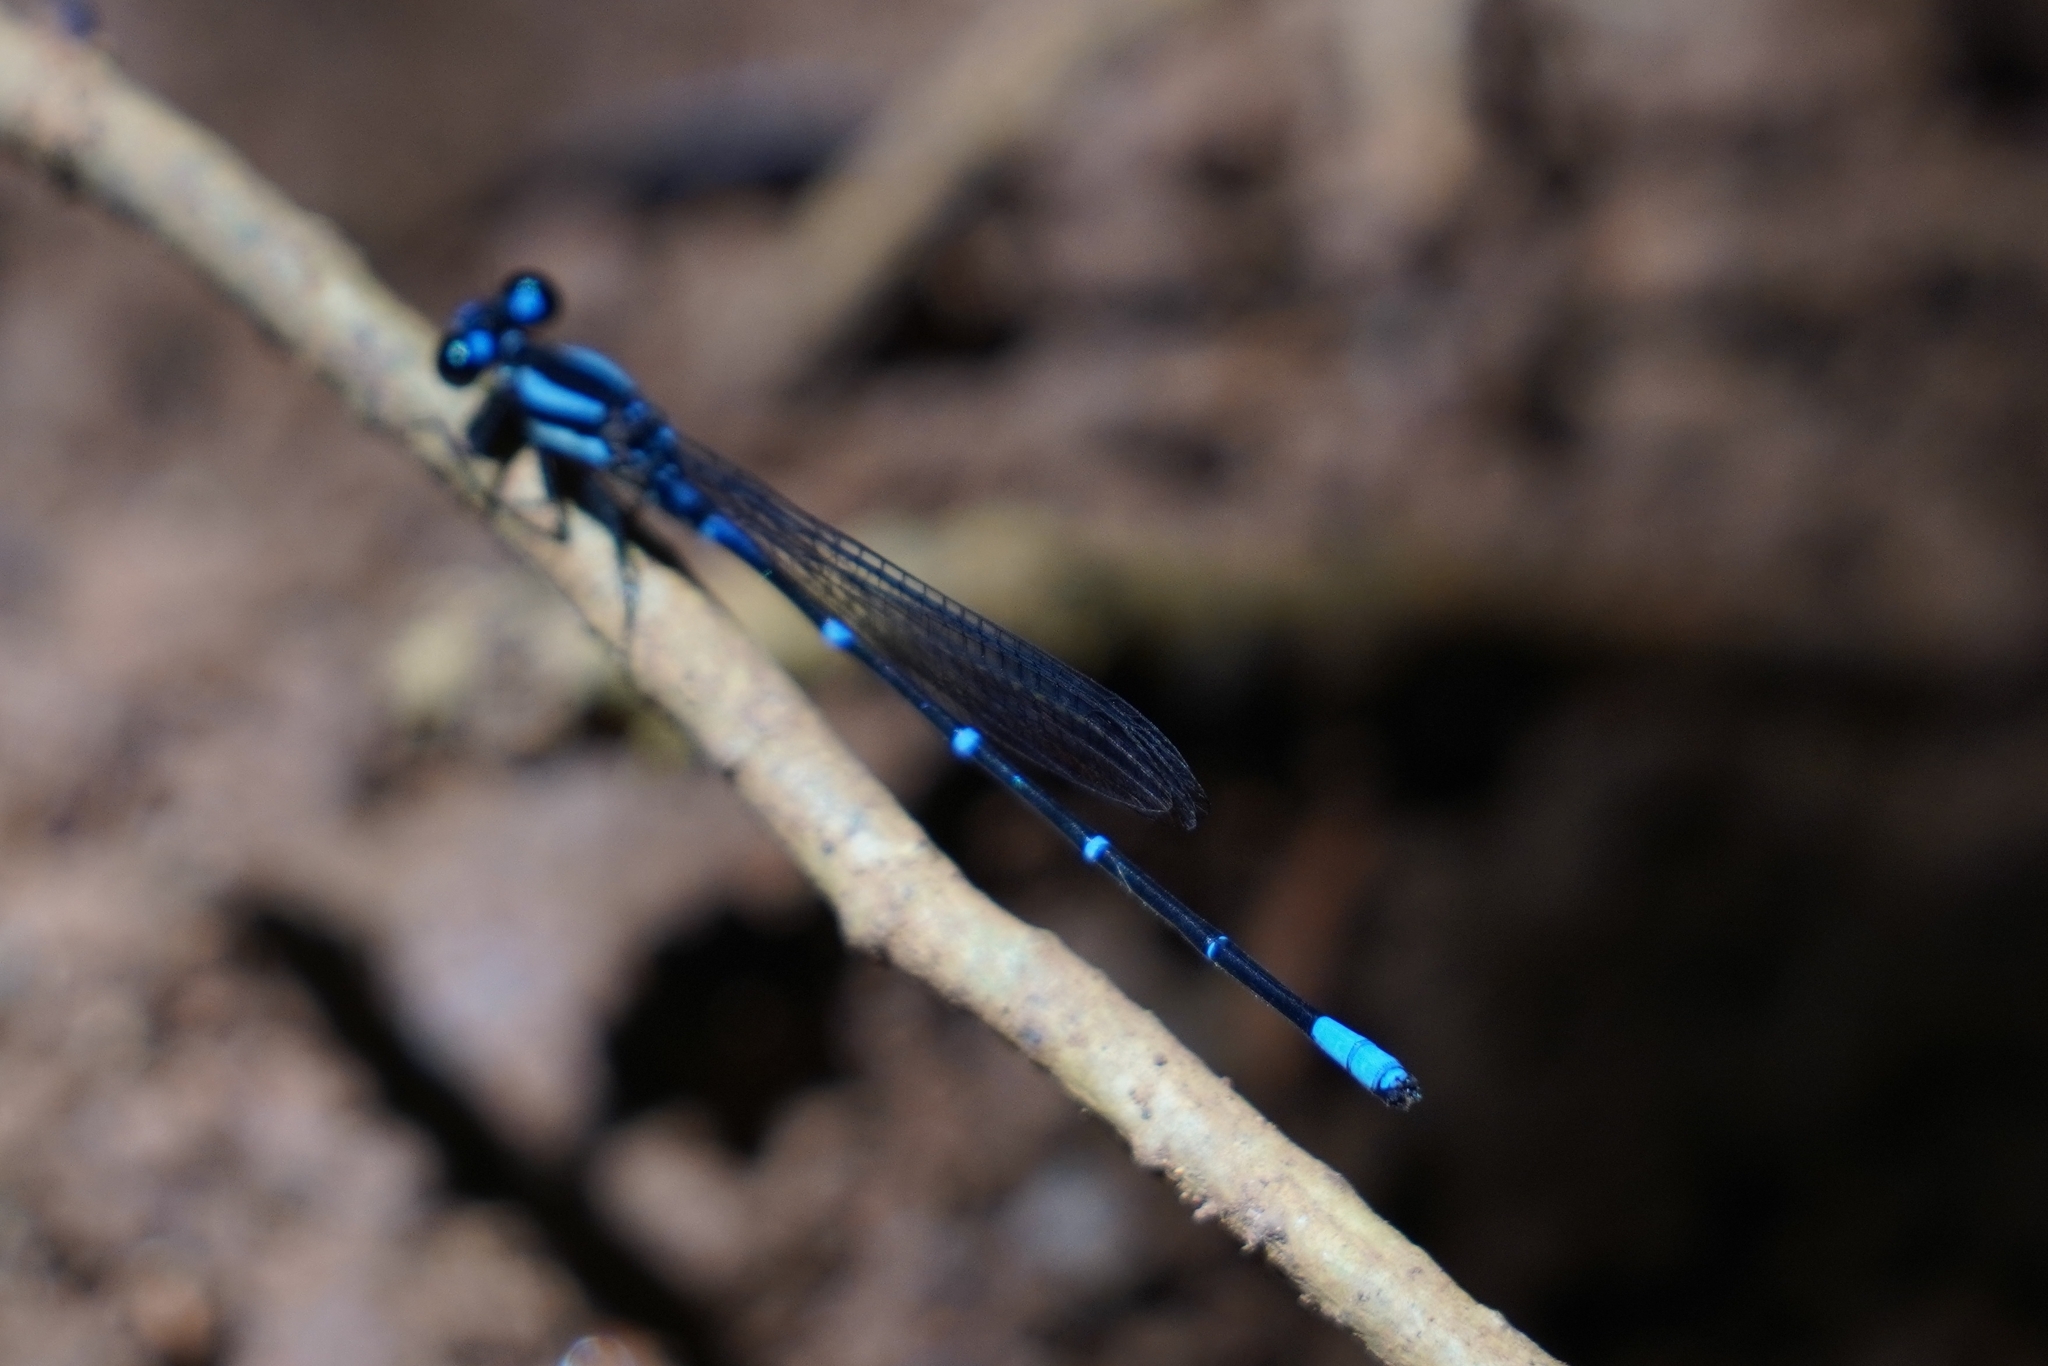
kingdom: Animalia
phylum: Arthropoda
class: Insecta
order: Odonata
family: Coenagrionidae
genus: Argia
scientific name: Argia oculata
